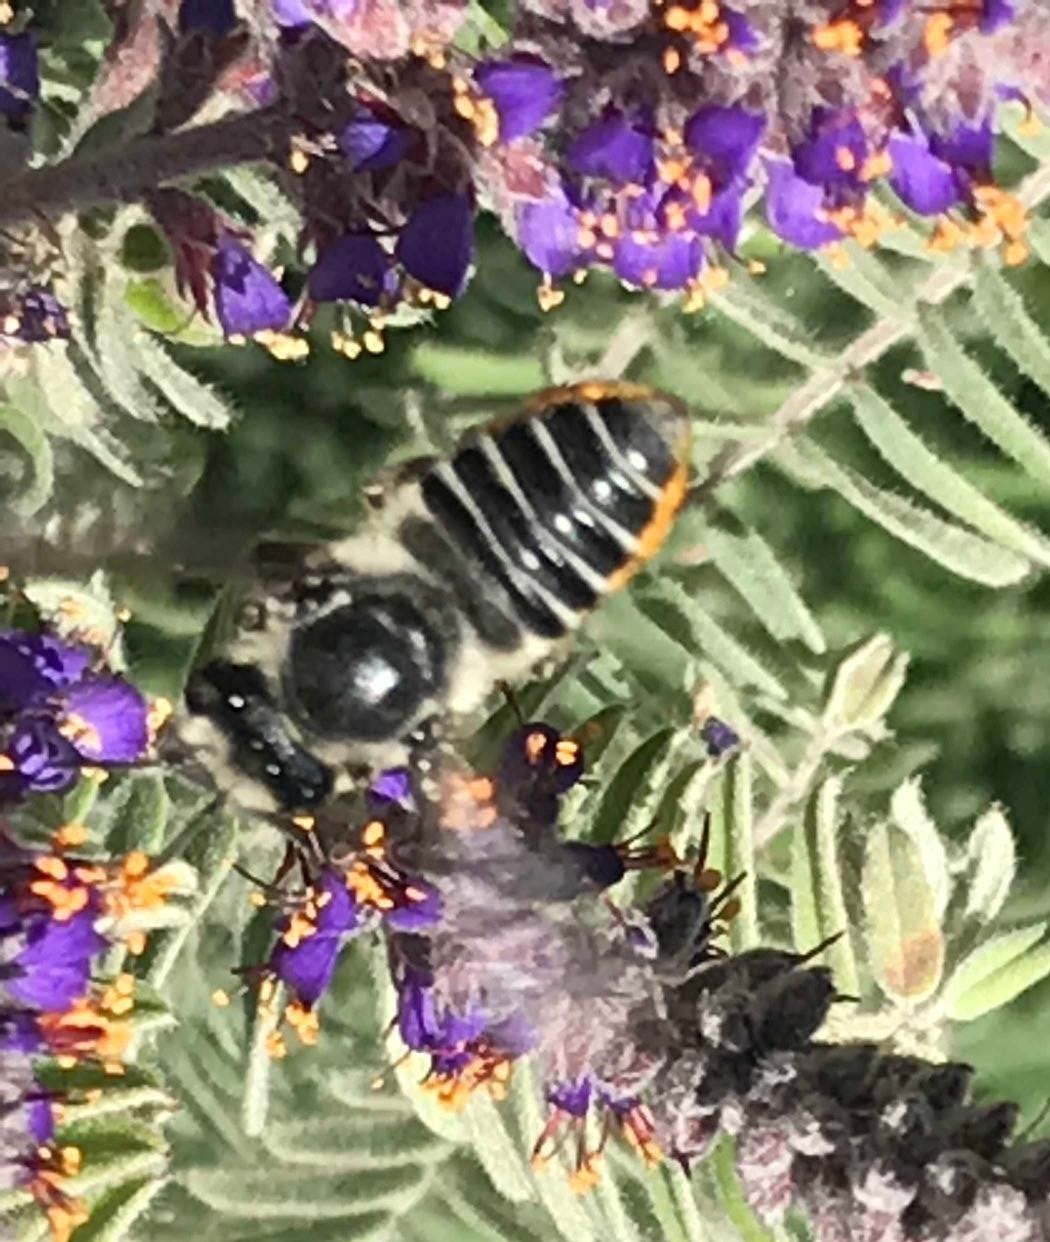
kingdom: Animalia
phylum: Arthropoda
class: Insecta
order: Hymenoptera
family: Megachilidae
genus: Megachile
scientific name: Megachile texana
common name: Texas leafcutter
